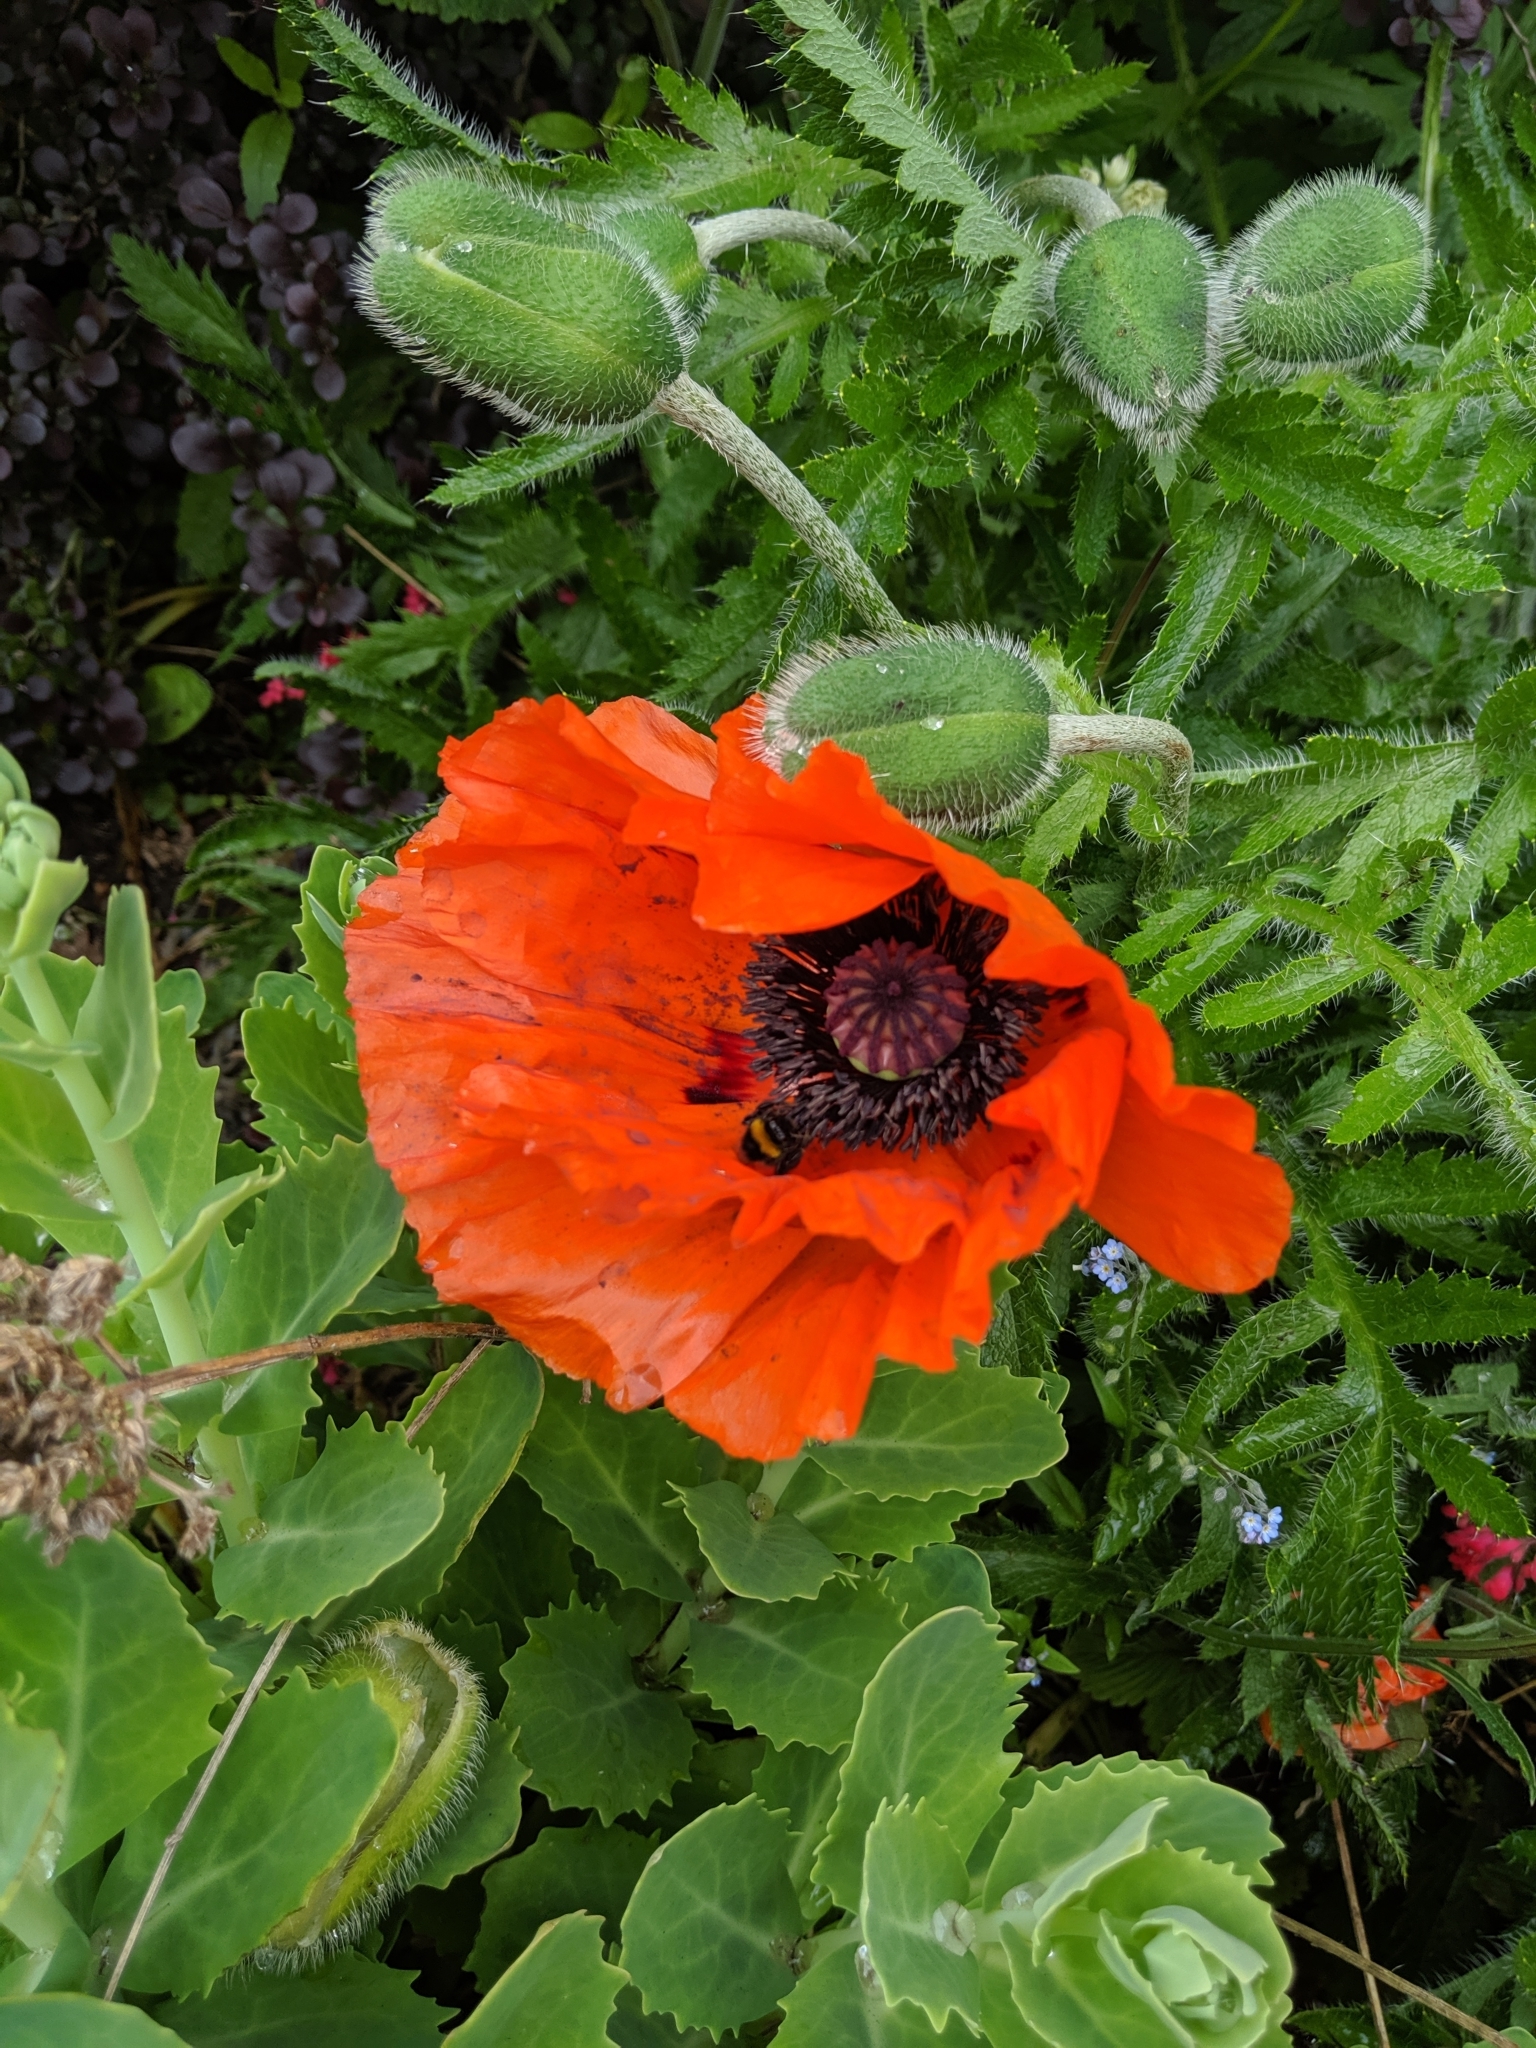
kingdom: Plantae
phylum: Tracheophyta
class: Magnoliopsida
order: Ranunculales
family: Papaveraceae
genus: Papaver
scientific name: Papaver orientale
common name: Oriental poppy
